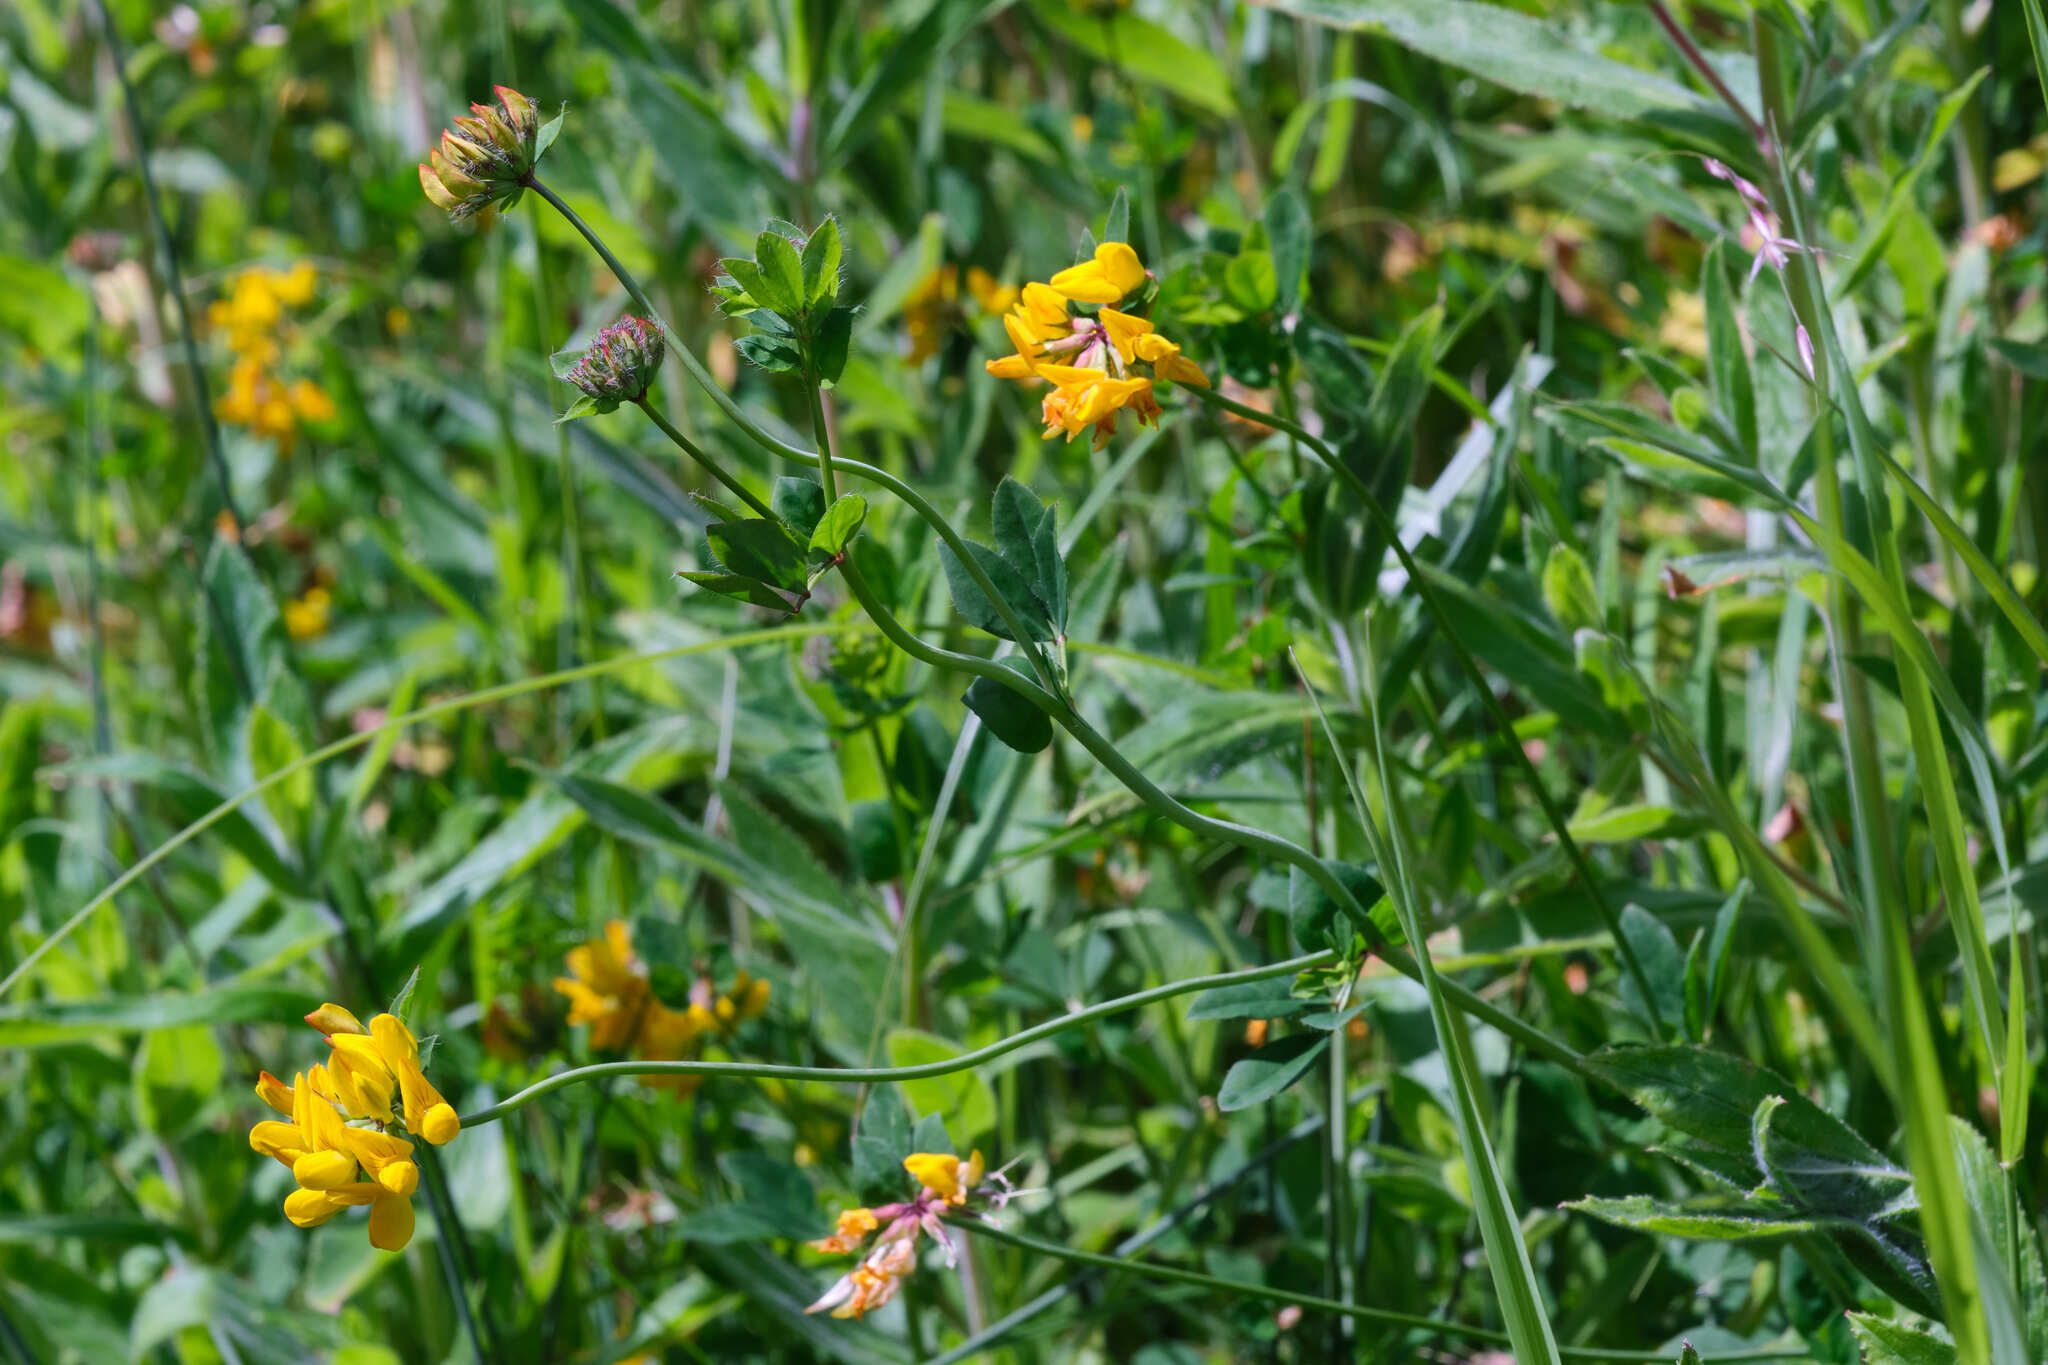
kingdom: Plantae
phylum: Tracheophyta
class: Magnoliopsida
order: Fabales
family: Fabaceae
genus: Lotus
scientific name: Lotus pedunculatus
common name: Greater birdsfoot-trefoil
